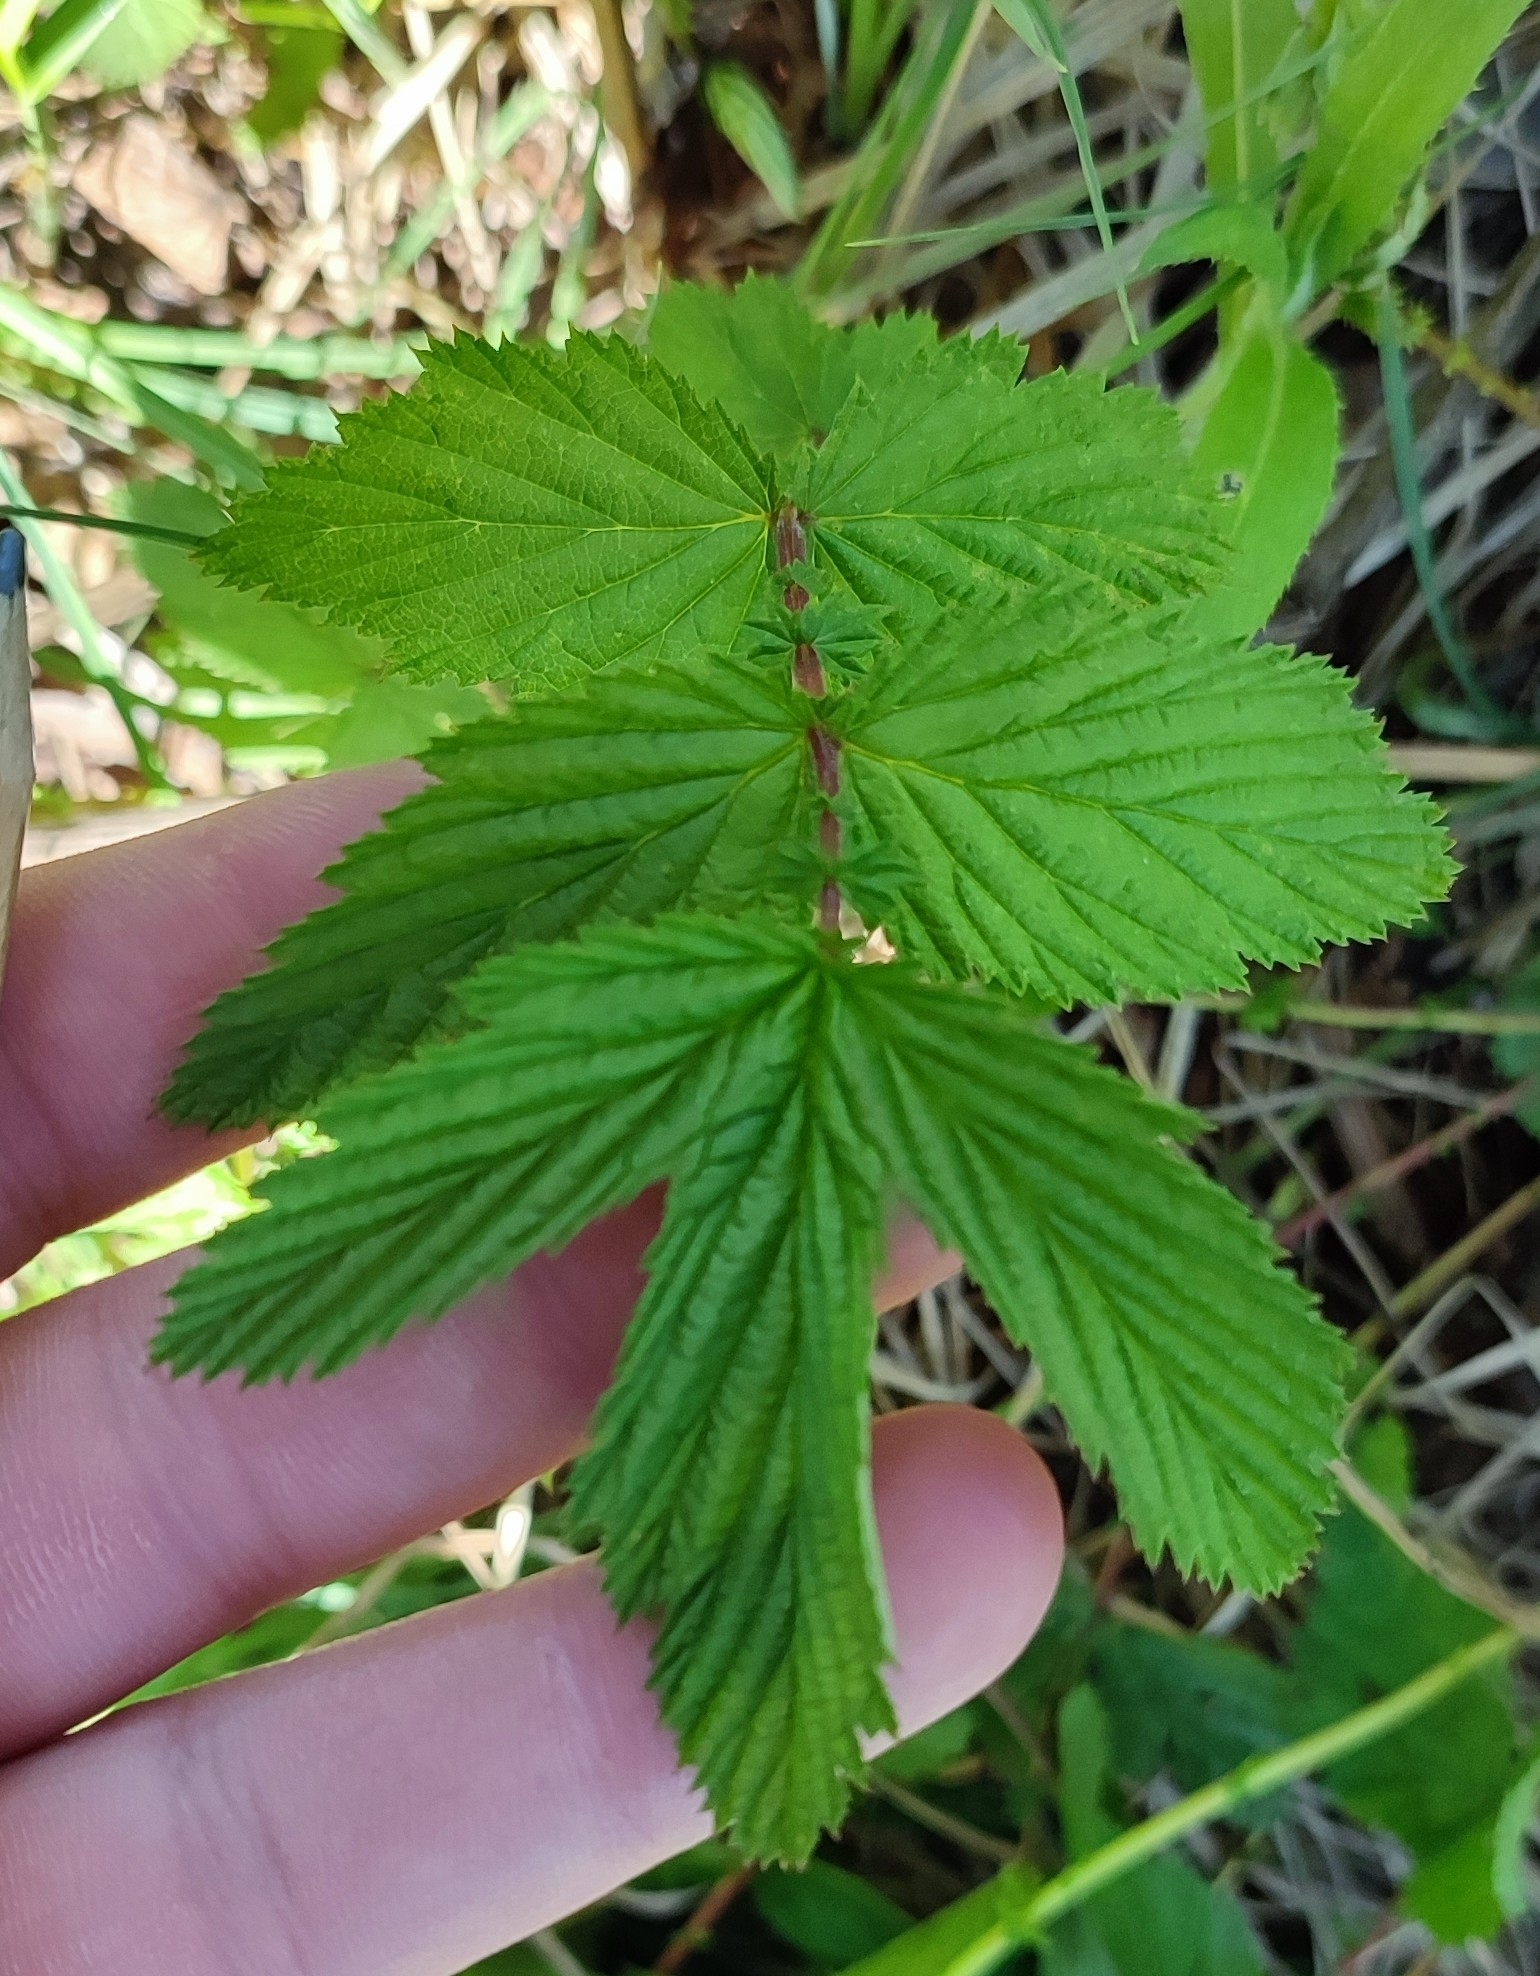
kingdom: Plantae
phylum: Tracheophyta
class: Magnoliopsida
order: Rosales
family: Rosaceae
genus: Filipendula
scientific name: Filipendula ulmaria
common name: Meadowsweet
